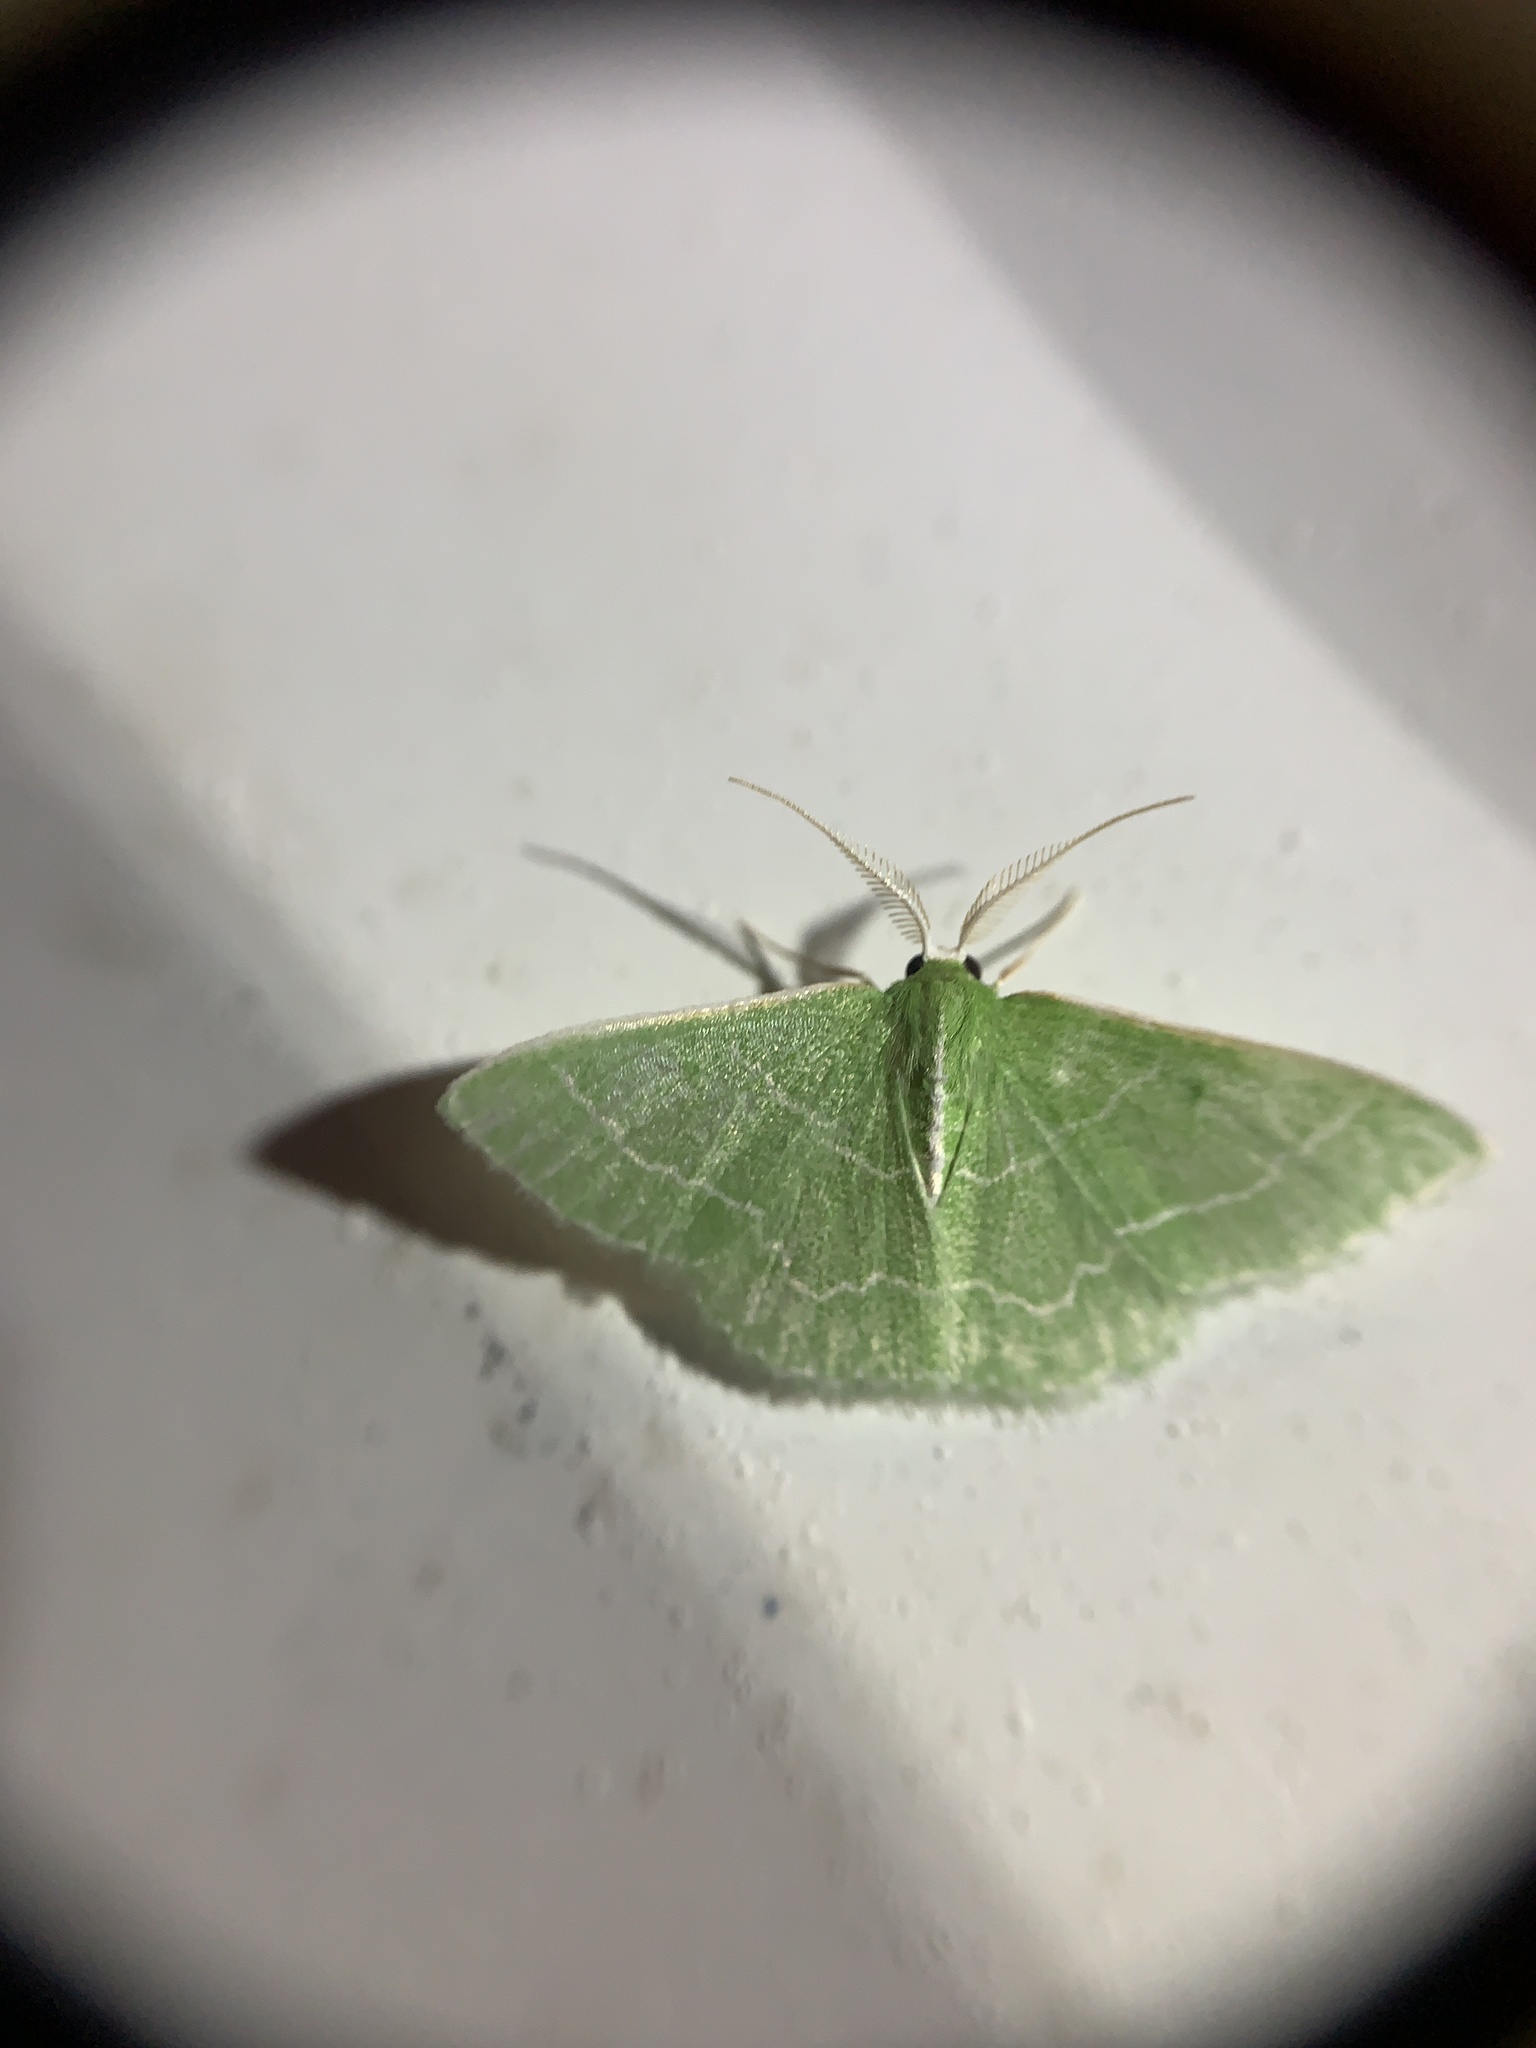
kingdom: Animalia
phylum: Arthropoda
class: Insecta
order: Lepidoptera
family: Geometridae
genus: Synchlora
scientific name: Synchlora aerata
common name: Wavy-lined emerald
